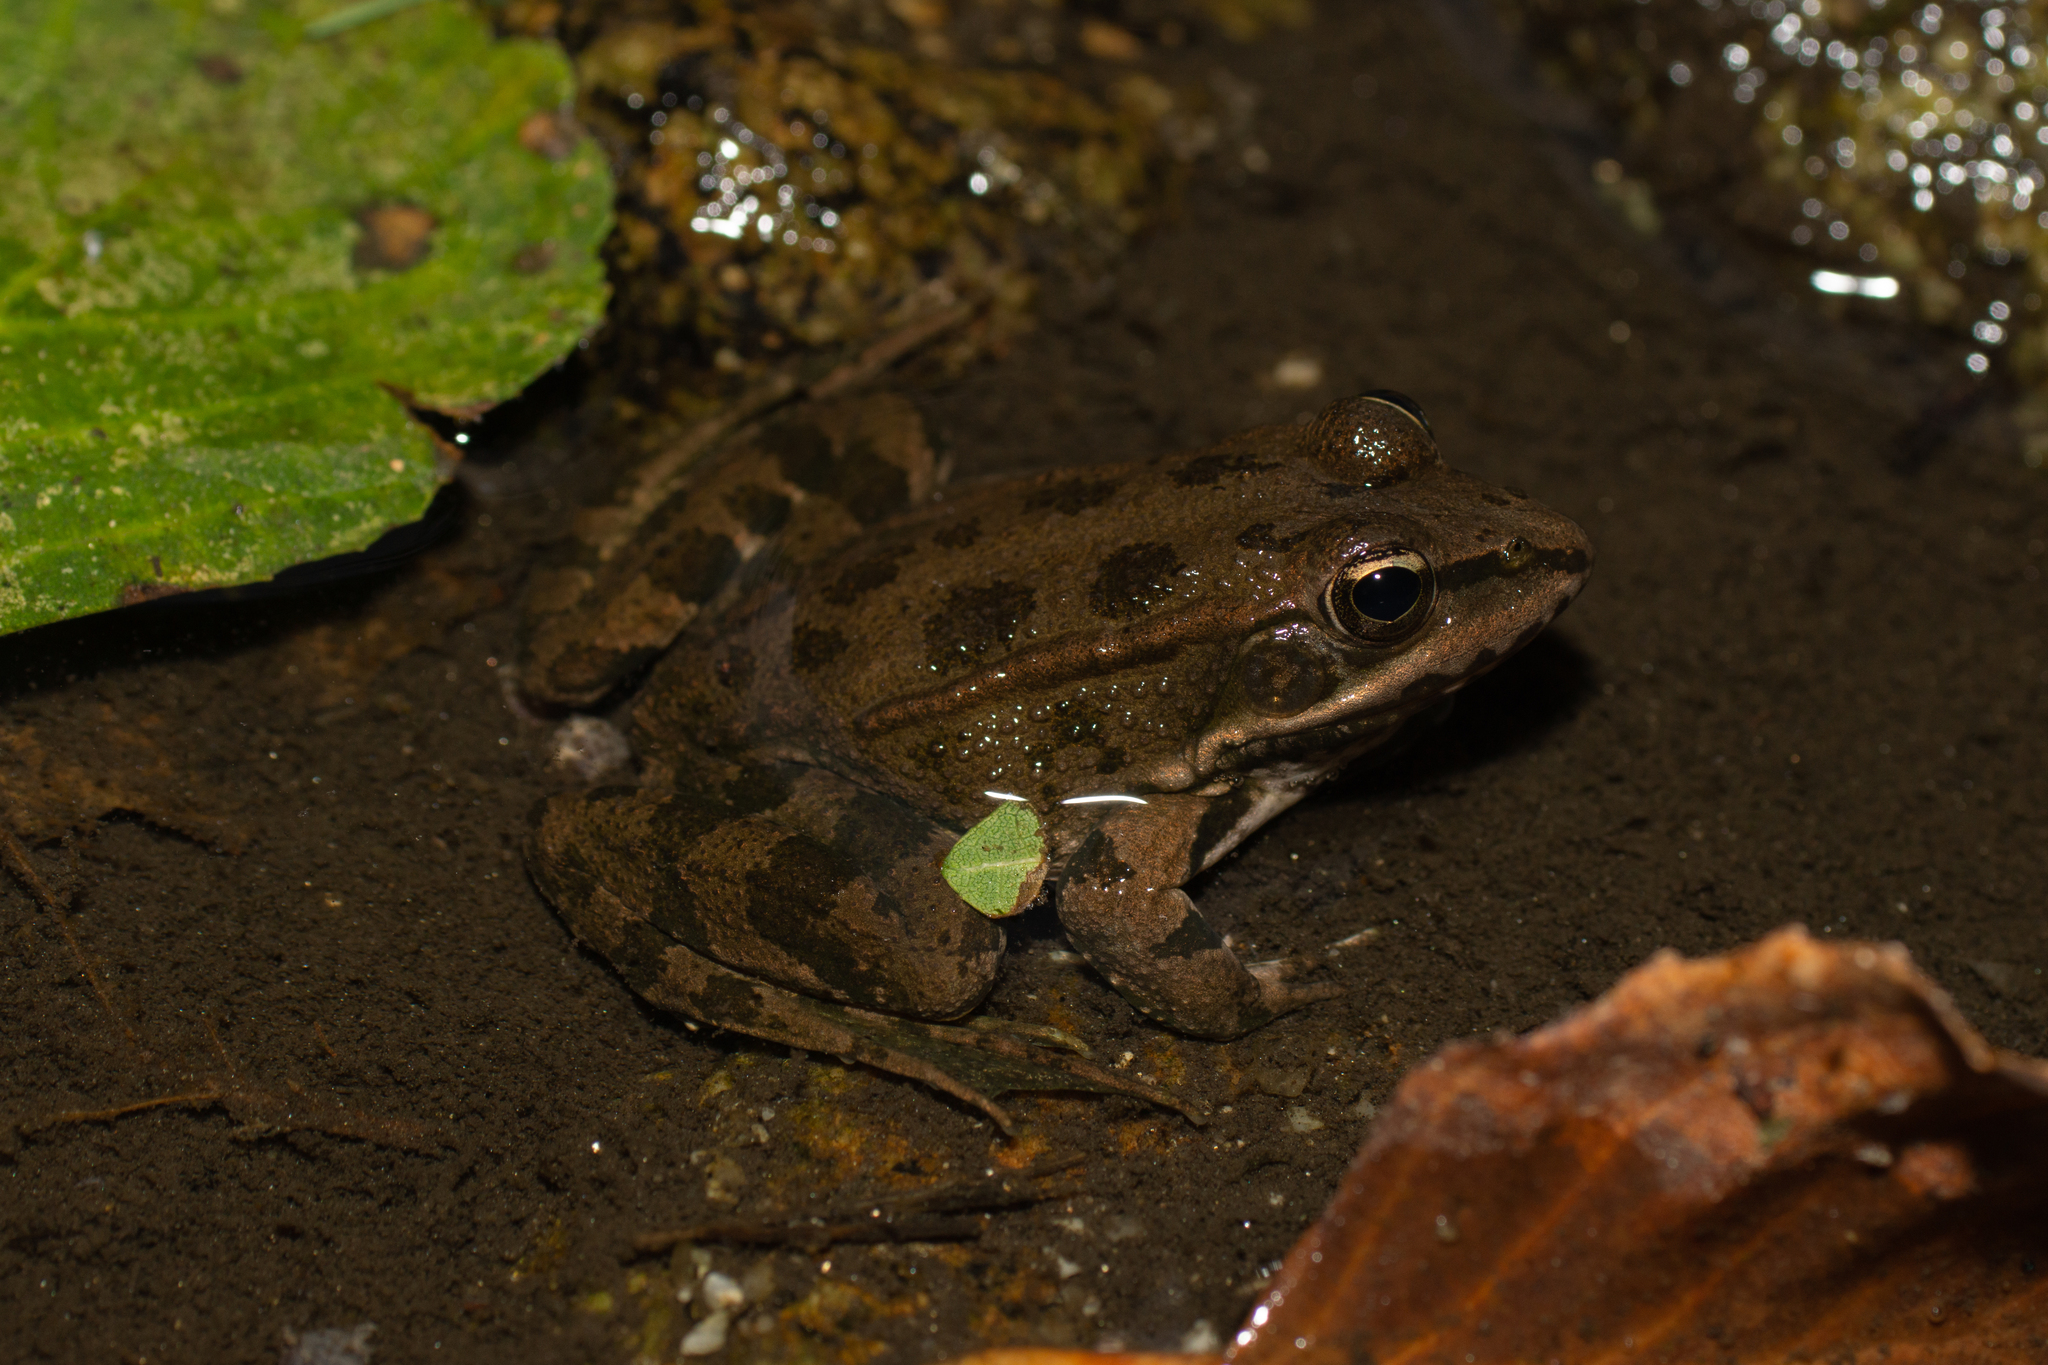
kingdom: Animalia
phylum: Chordata
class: Amphibia
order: Anura
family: Ranidae
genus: Pelophylax
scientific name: Pelophylax perezi
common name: Perez's frog
